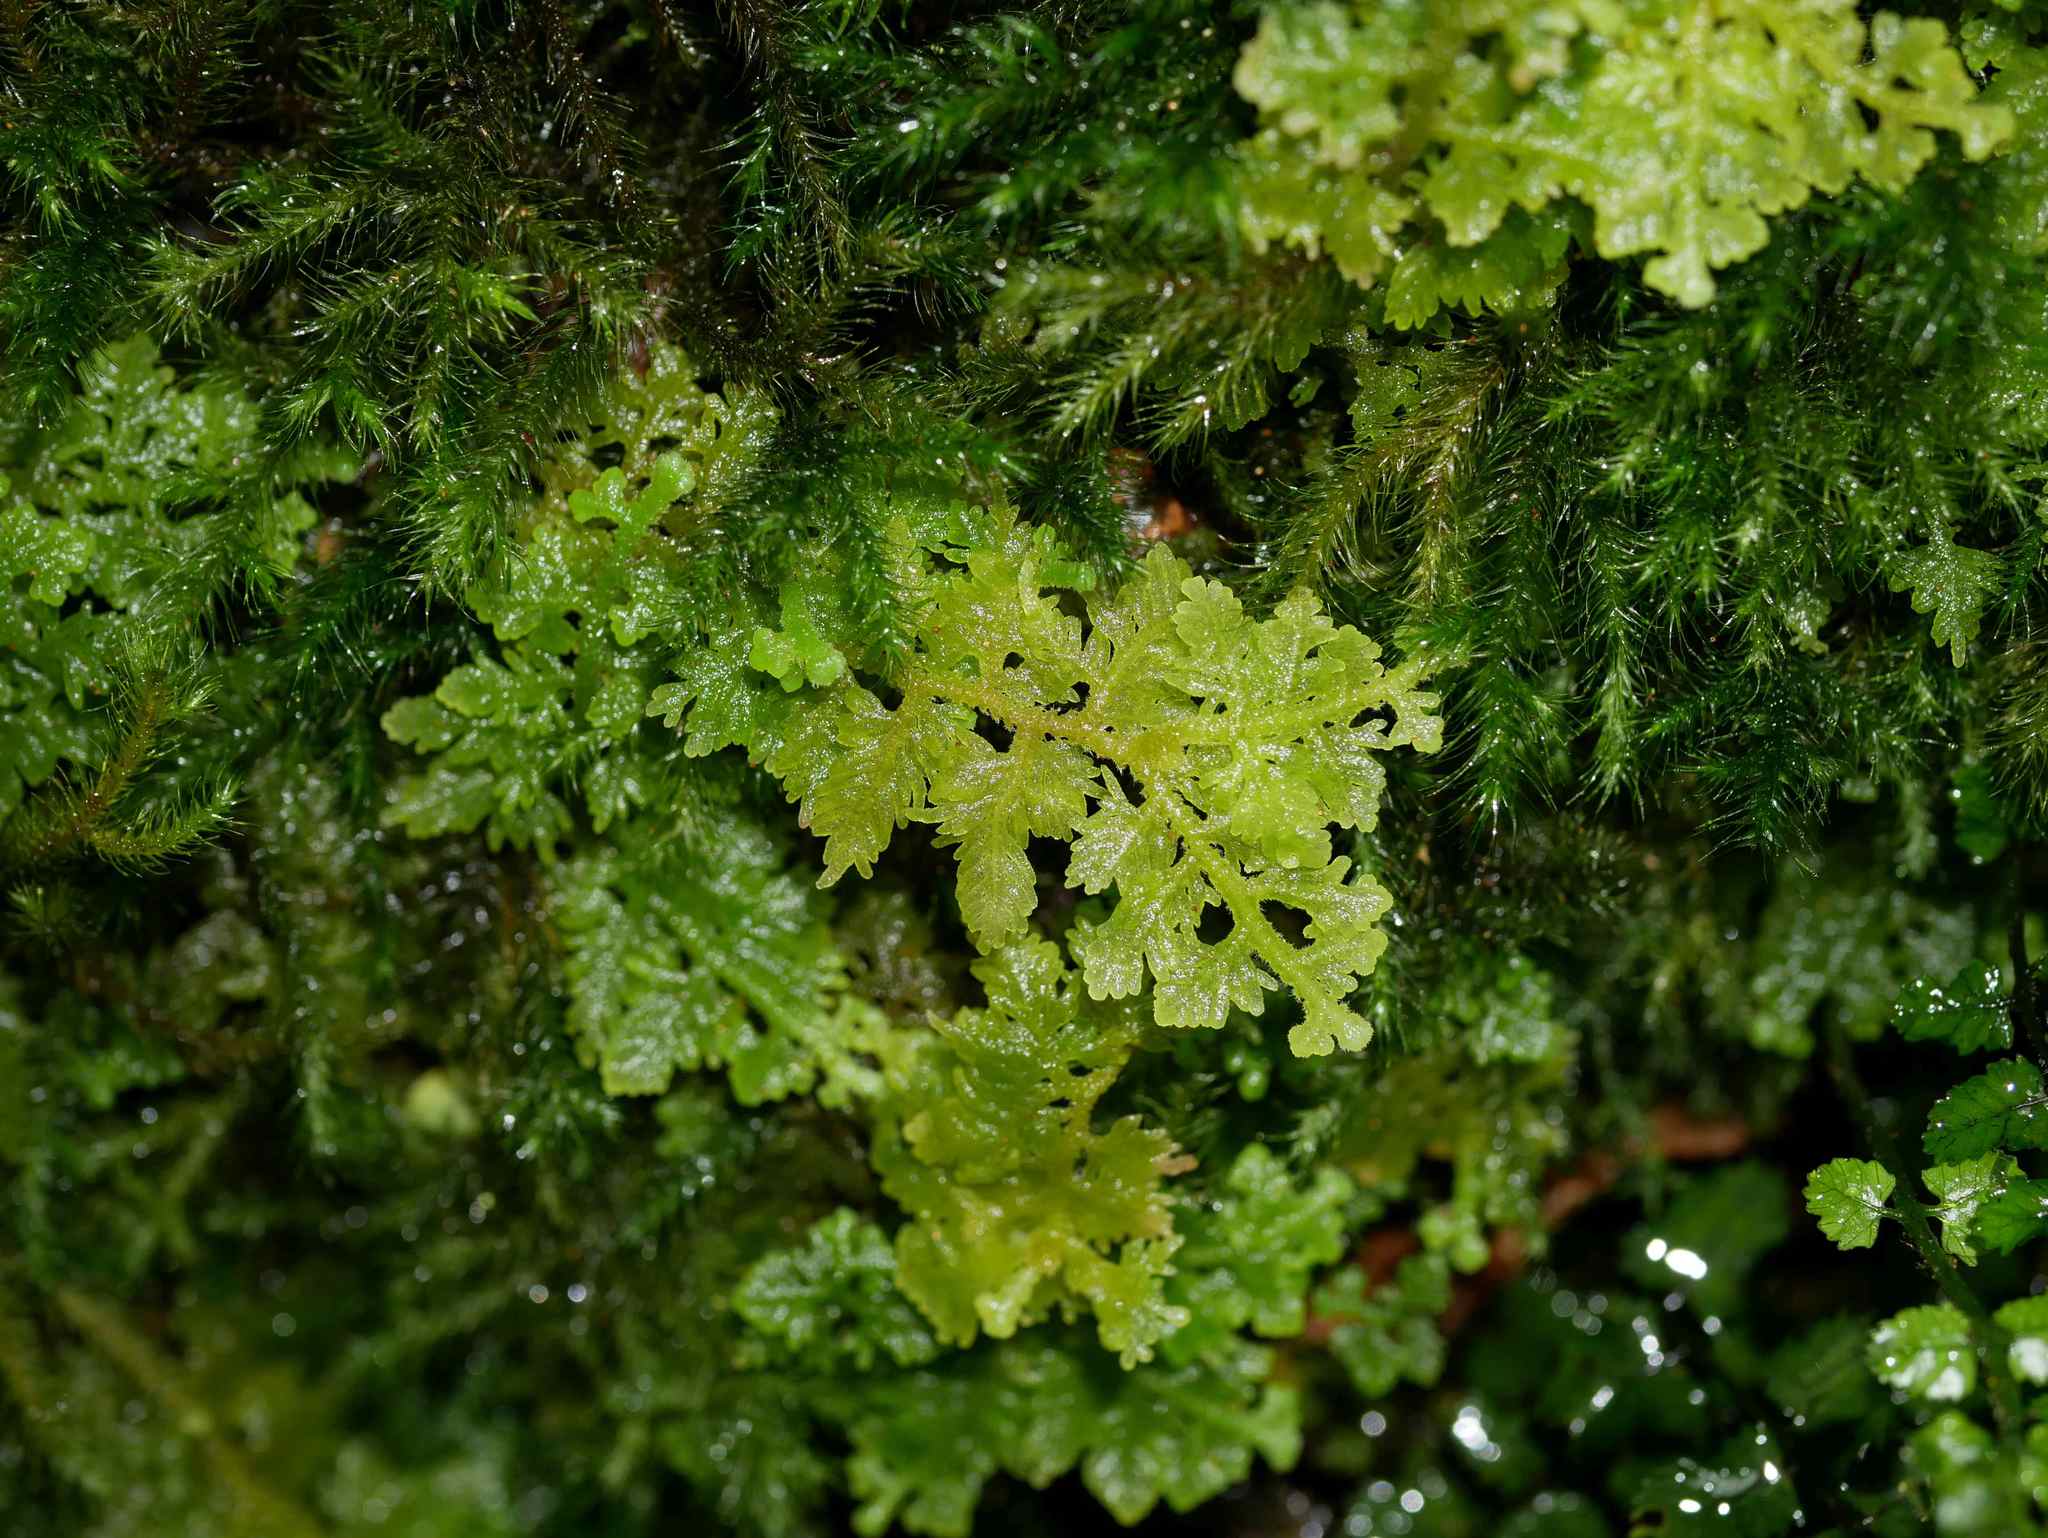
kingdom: Plantae
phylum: Marchantiophyta
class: Jungermanniopsida
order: Jungermanniales
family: Trichocoleaceae
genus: Trichocolea
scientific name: Trichocolea mollissima
